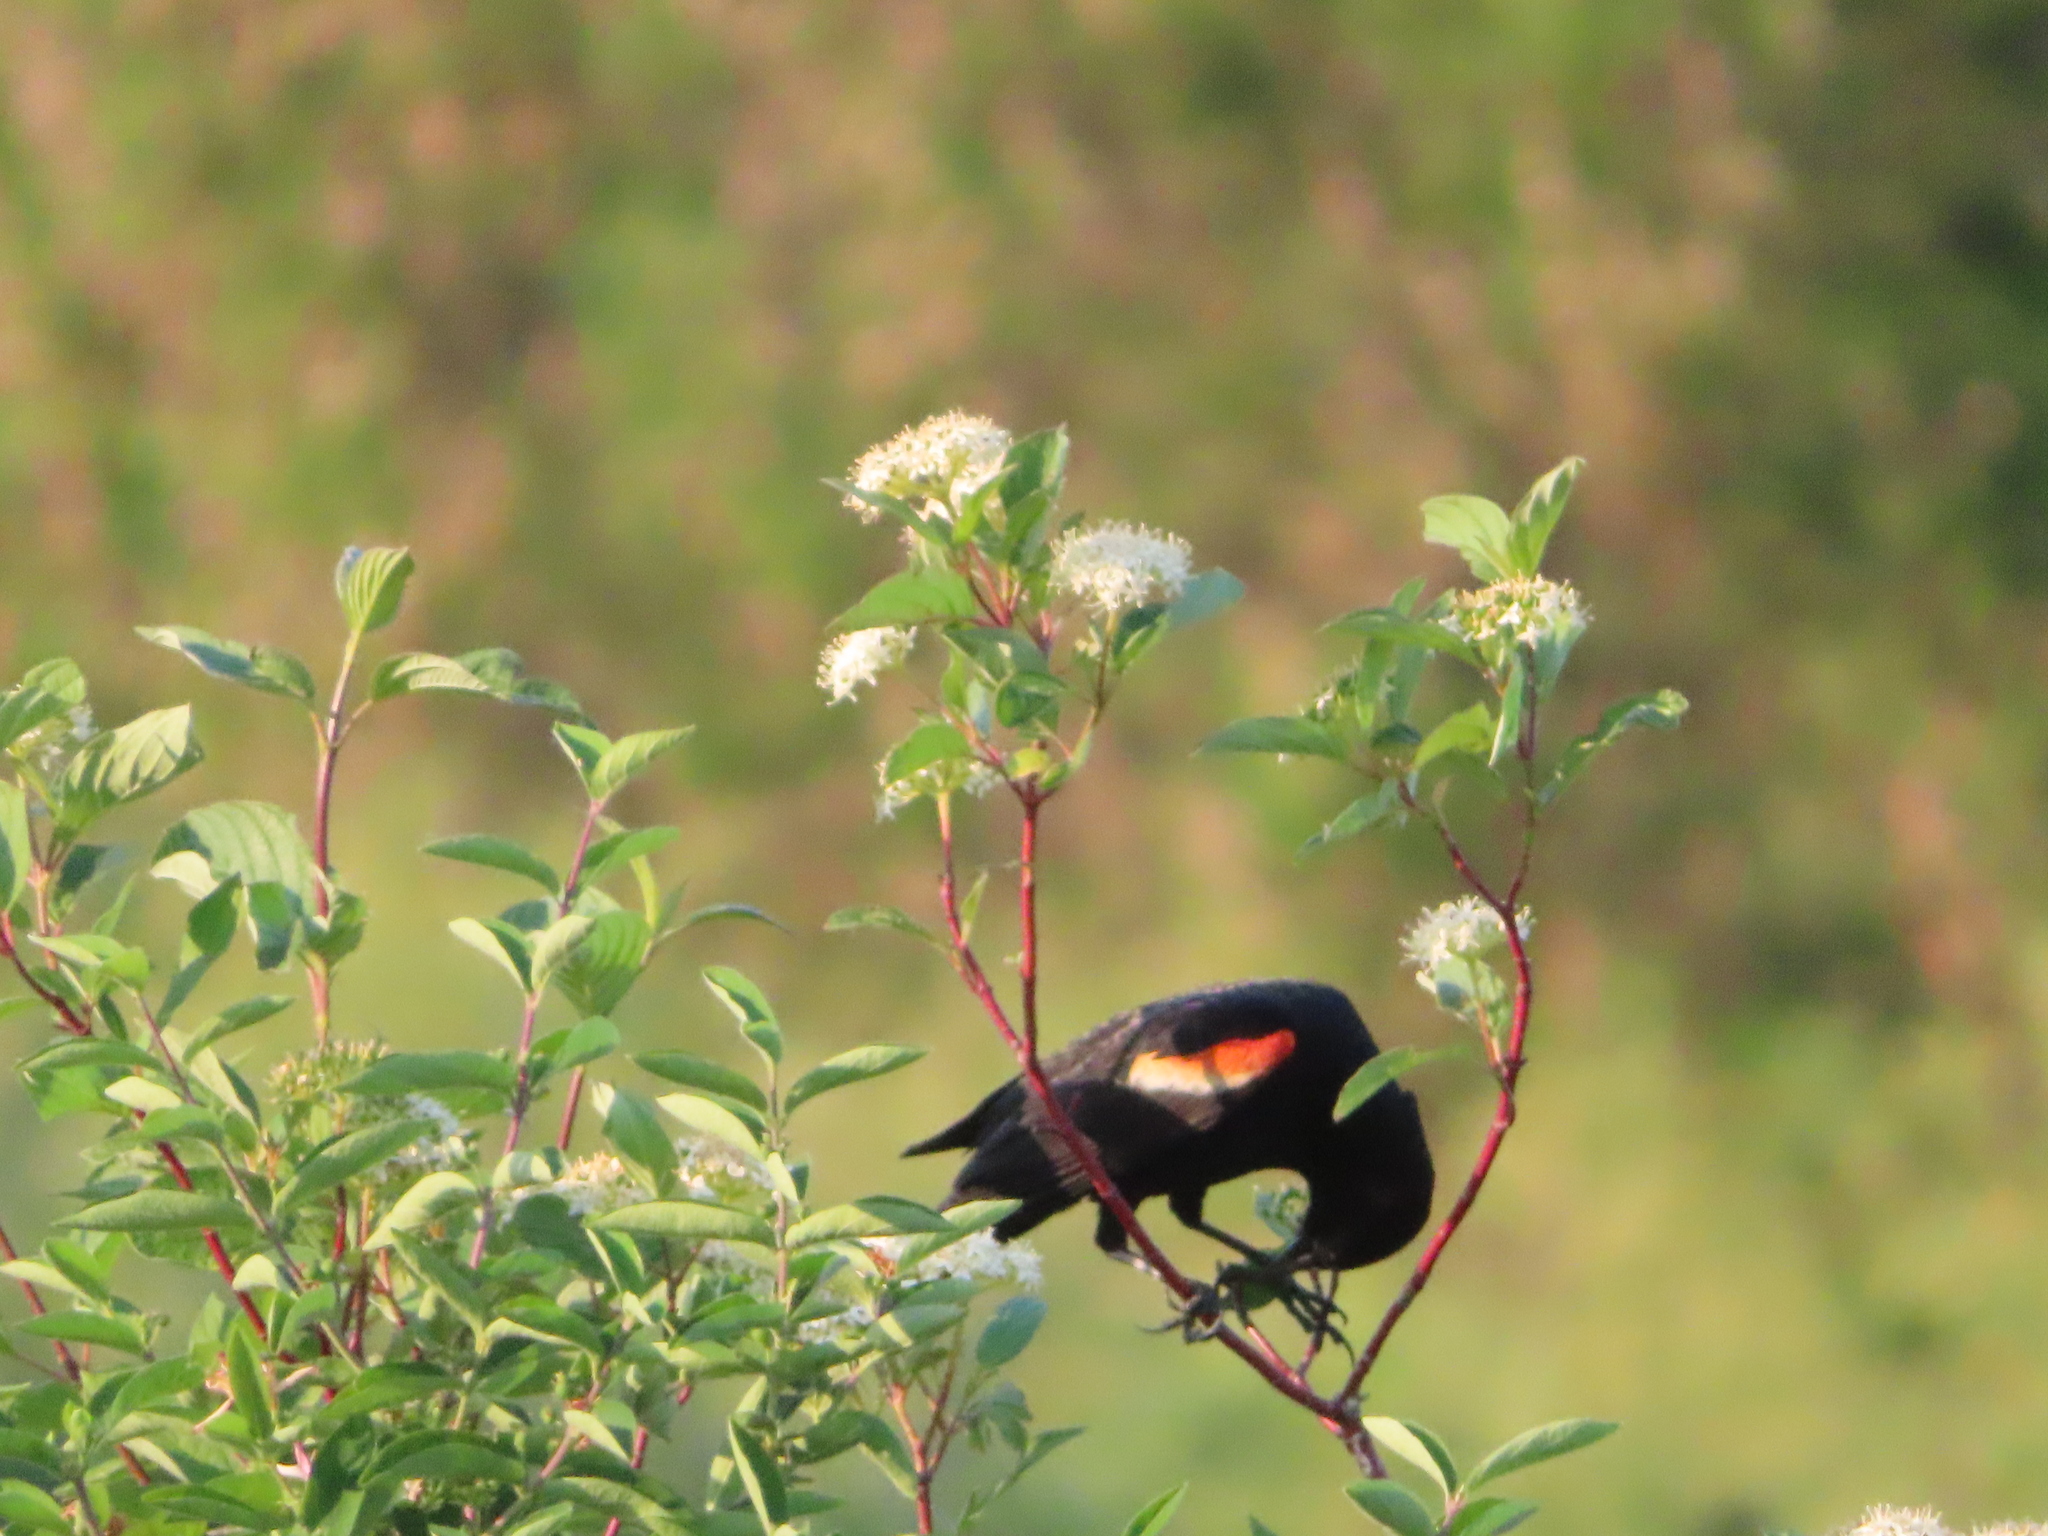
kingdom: Animalia
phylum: Chordata
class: Aves
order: Passeriformes
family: Icteridae
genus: Agelaius
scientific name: Agelaius phoeniceus
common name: Red-winged blackbird
